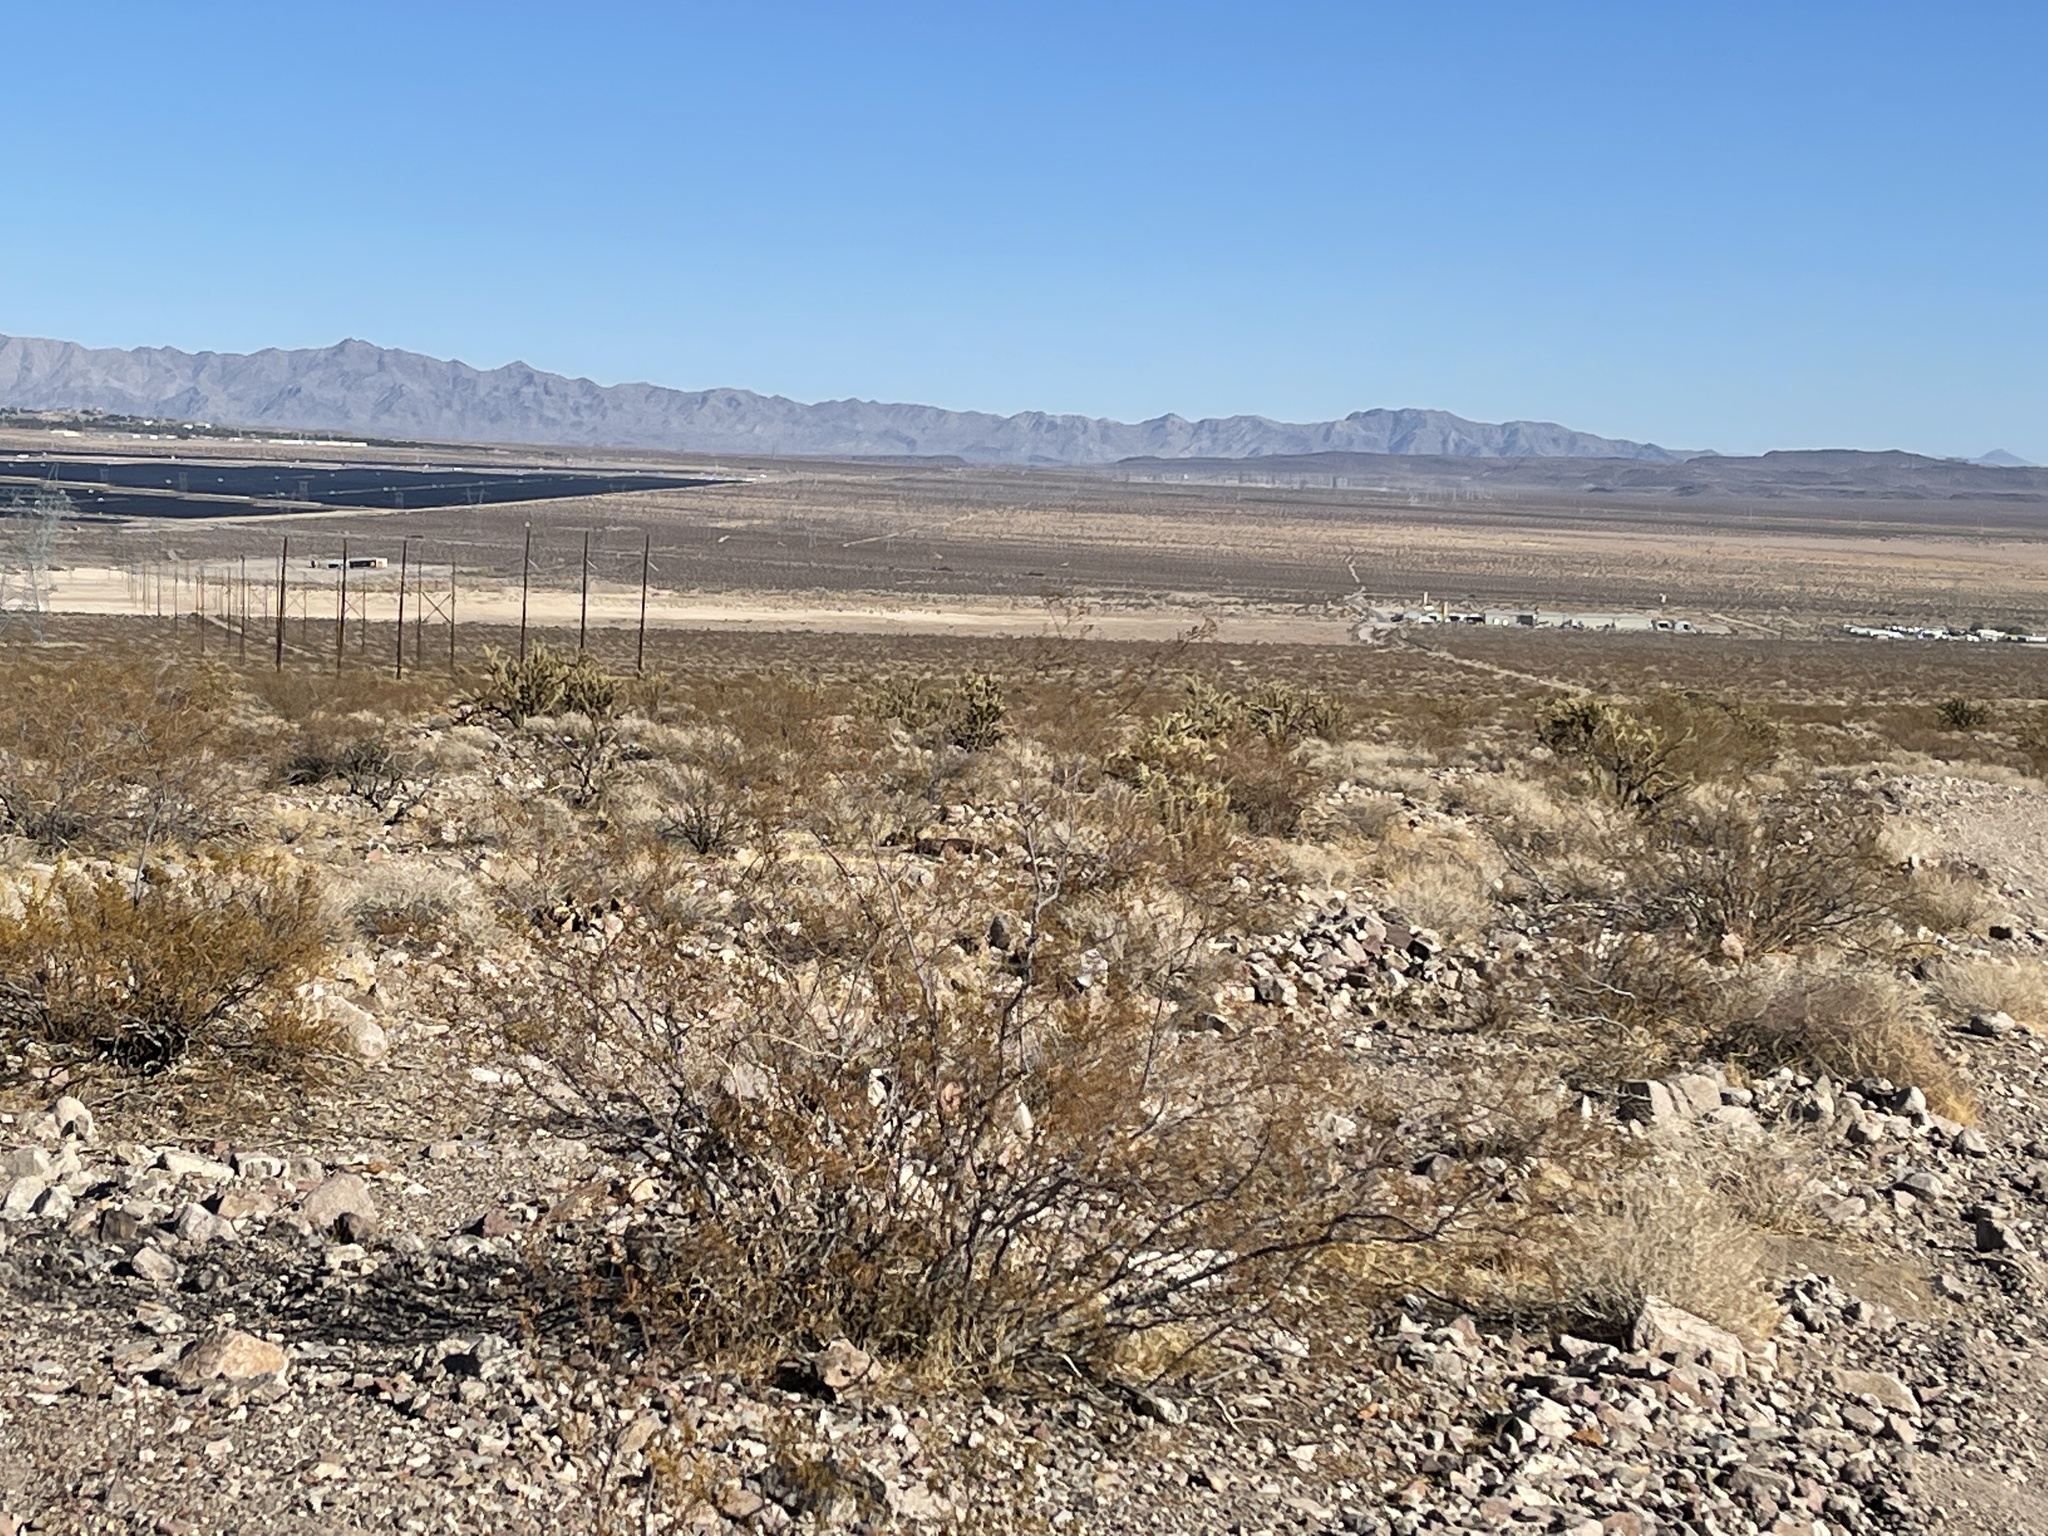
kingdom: Plantae
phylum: Tracheophyta
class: Magnoliopsida
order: Zygophyllales
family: Zygophyllaceae
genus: Larrea
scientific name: Larrea tridentata
